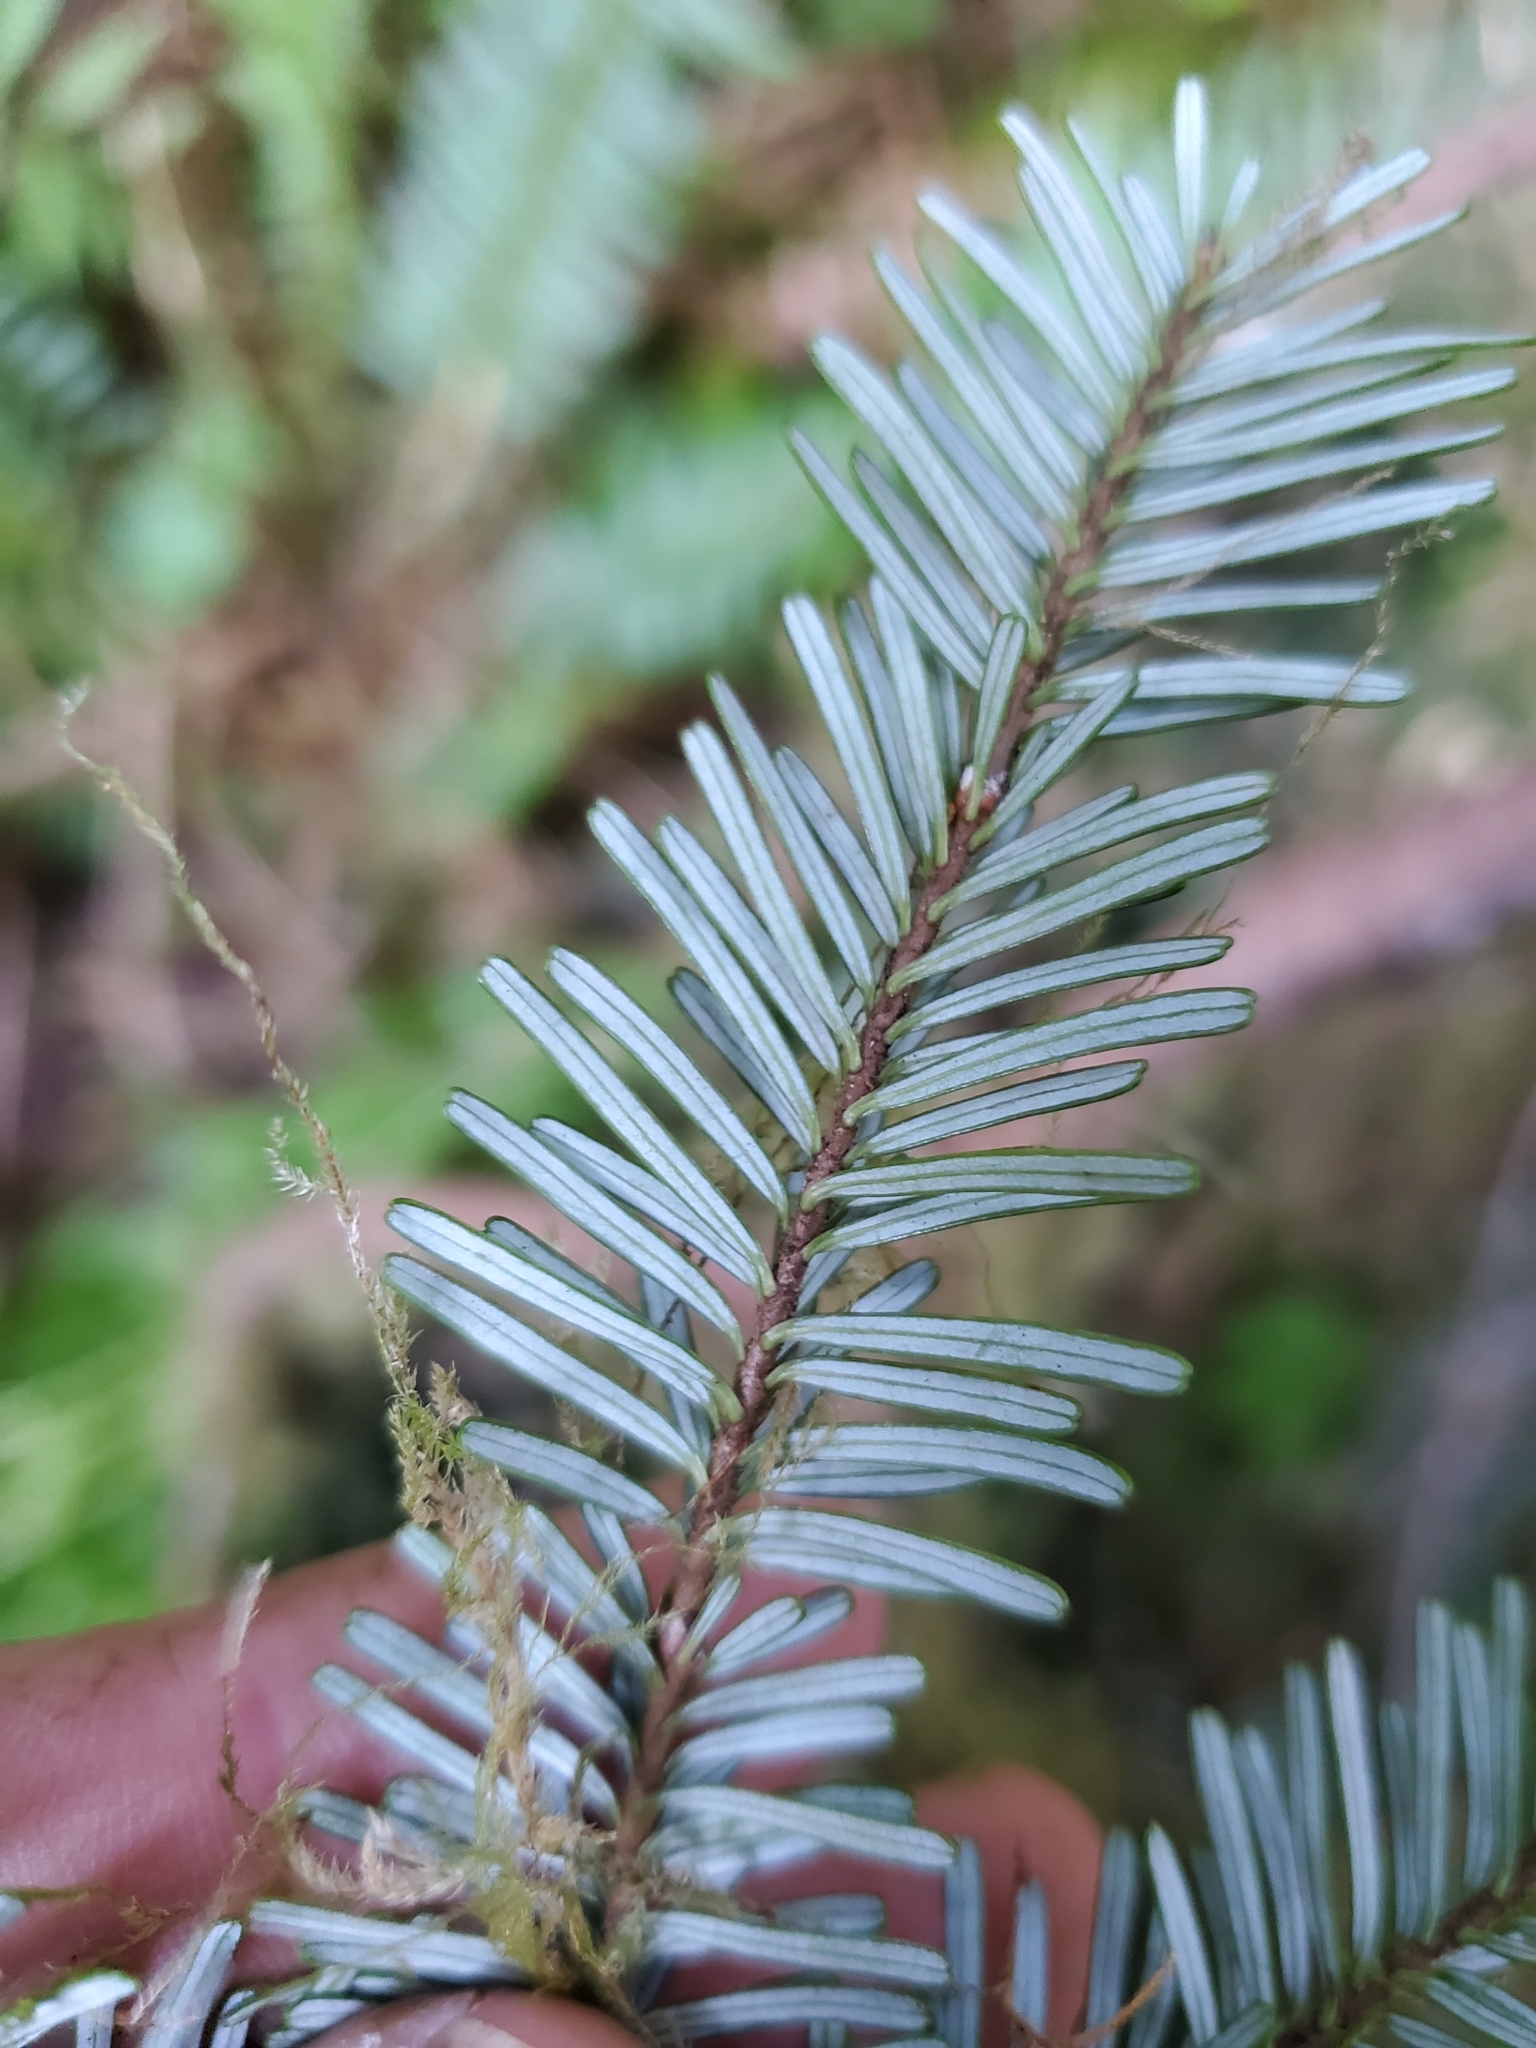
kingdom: Plantae
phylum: Tracheophyta
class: Pinopsida
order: Pinales
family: Pinaceae
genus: Abies
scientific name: Abies amabilis
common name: Pacific silver fir
